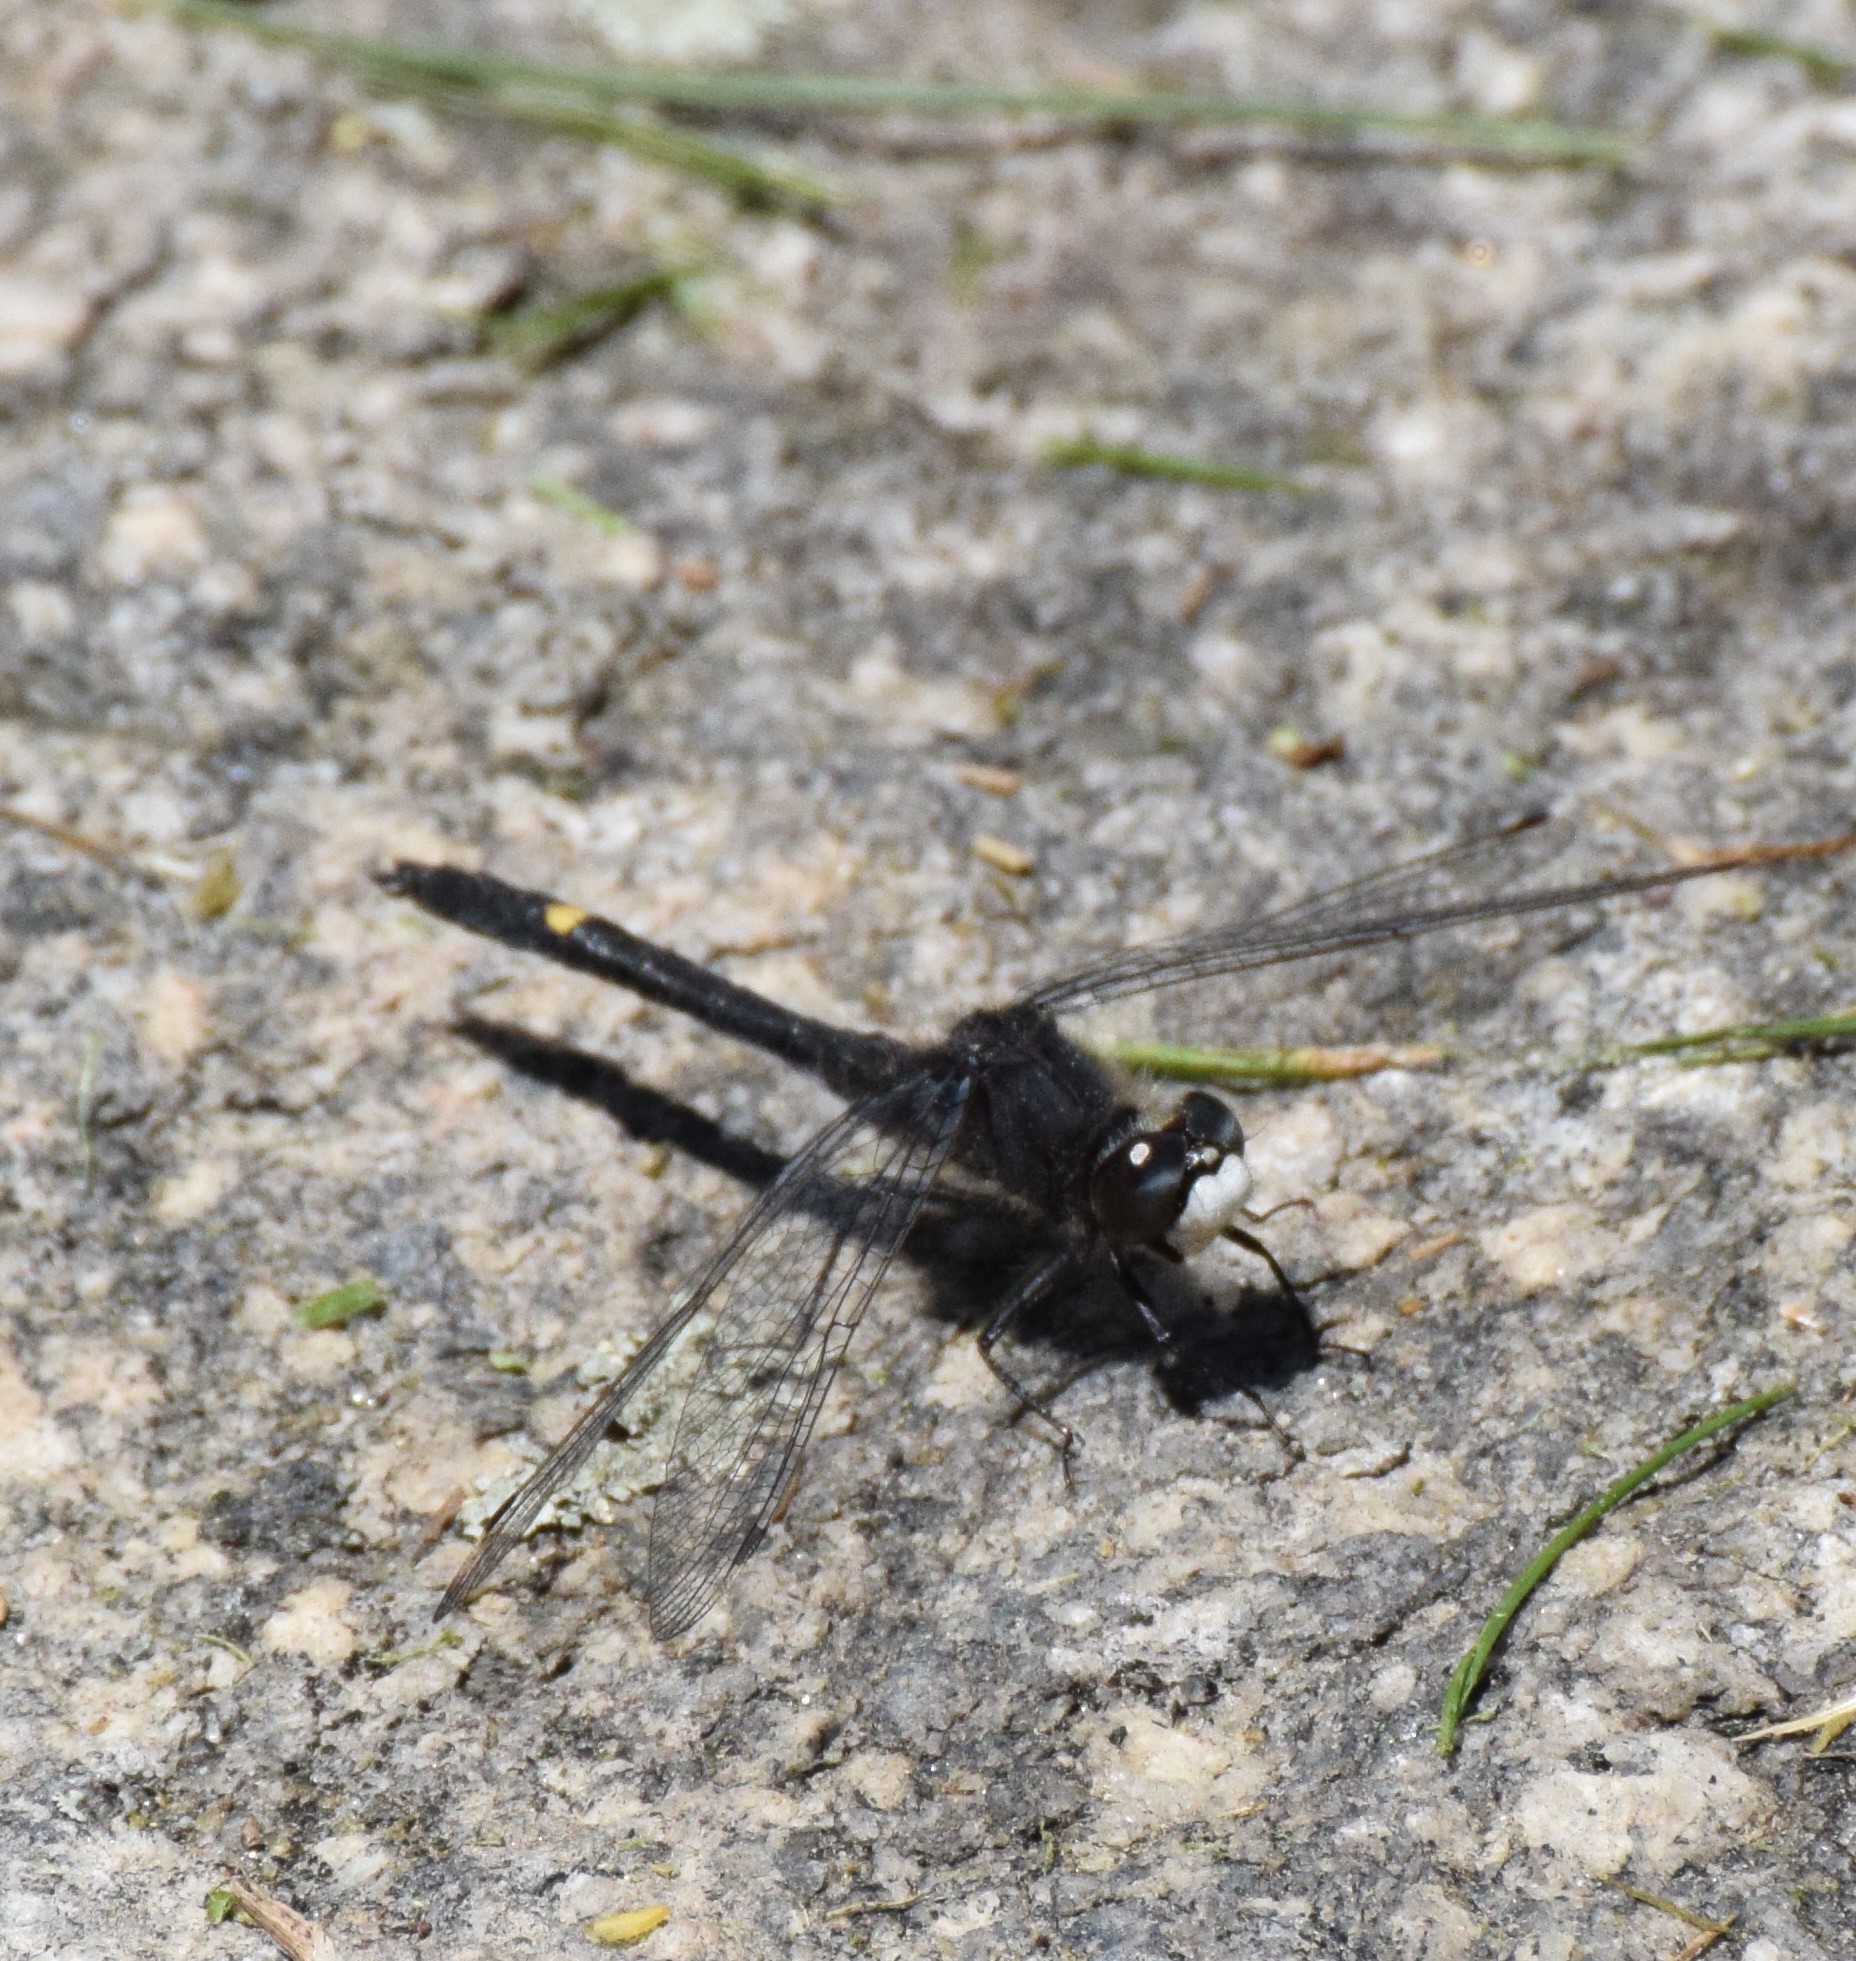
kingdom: Animalia
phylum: Arthropoda
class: Insecta
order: Odonata
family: Libellulidae
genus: Leucorrhinia
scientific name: Leucorrhinia intacta
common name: Dot-tailed whiteface
